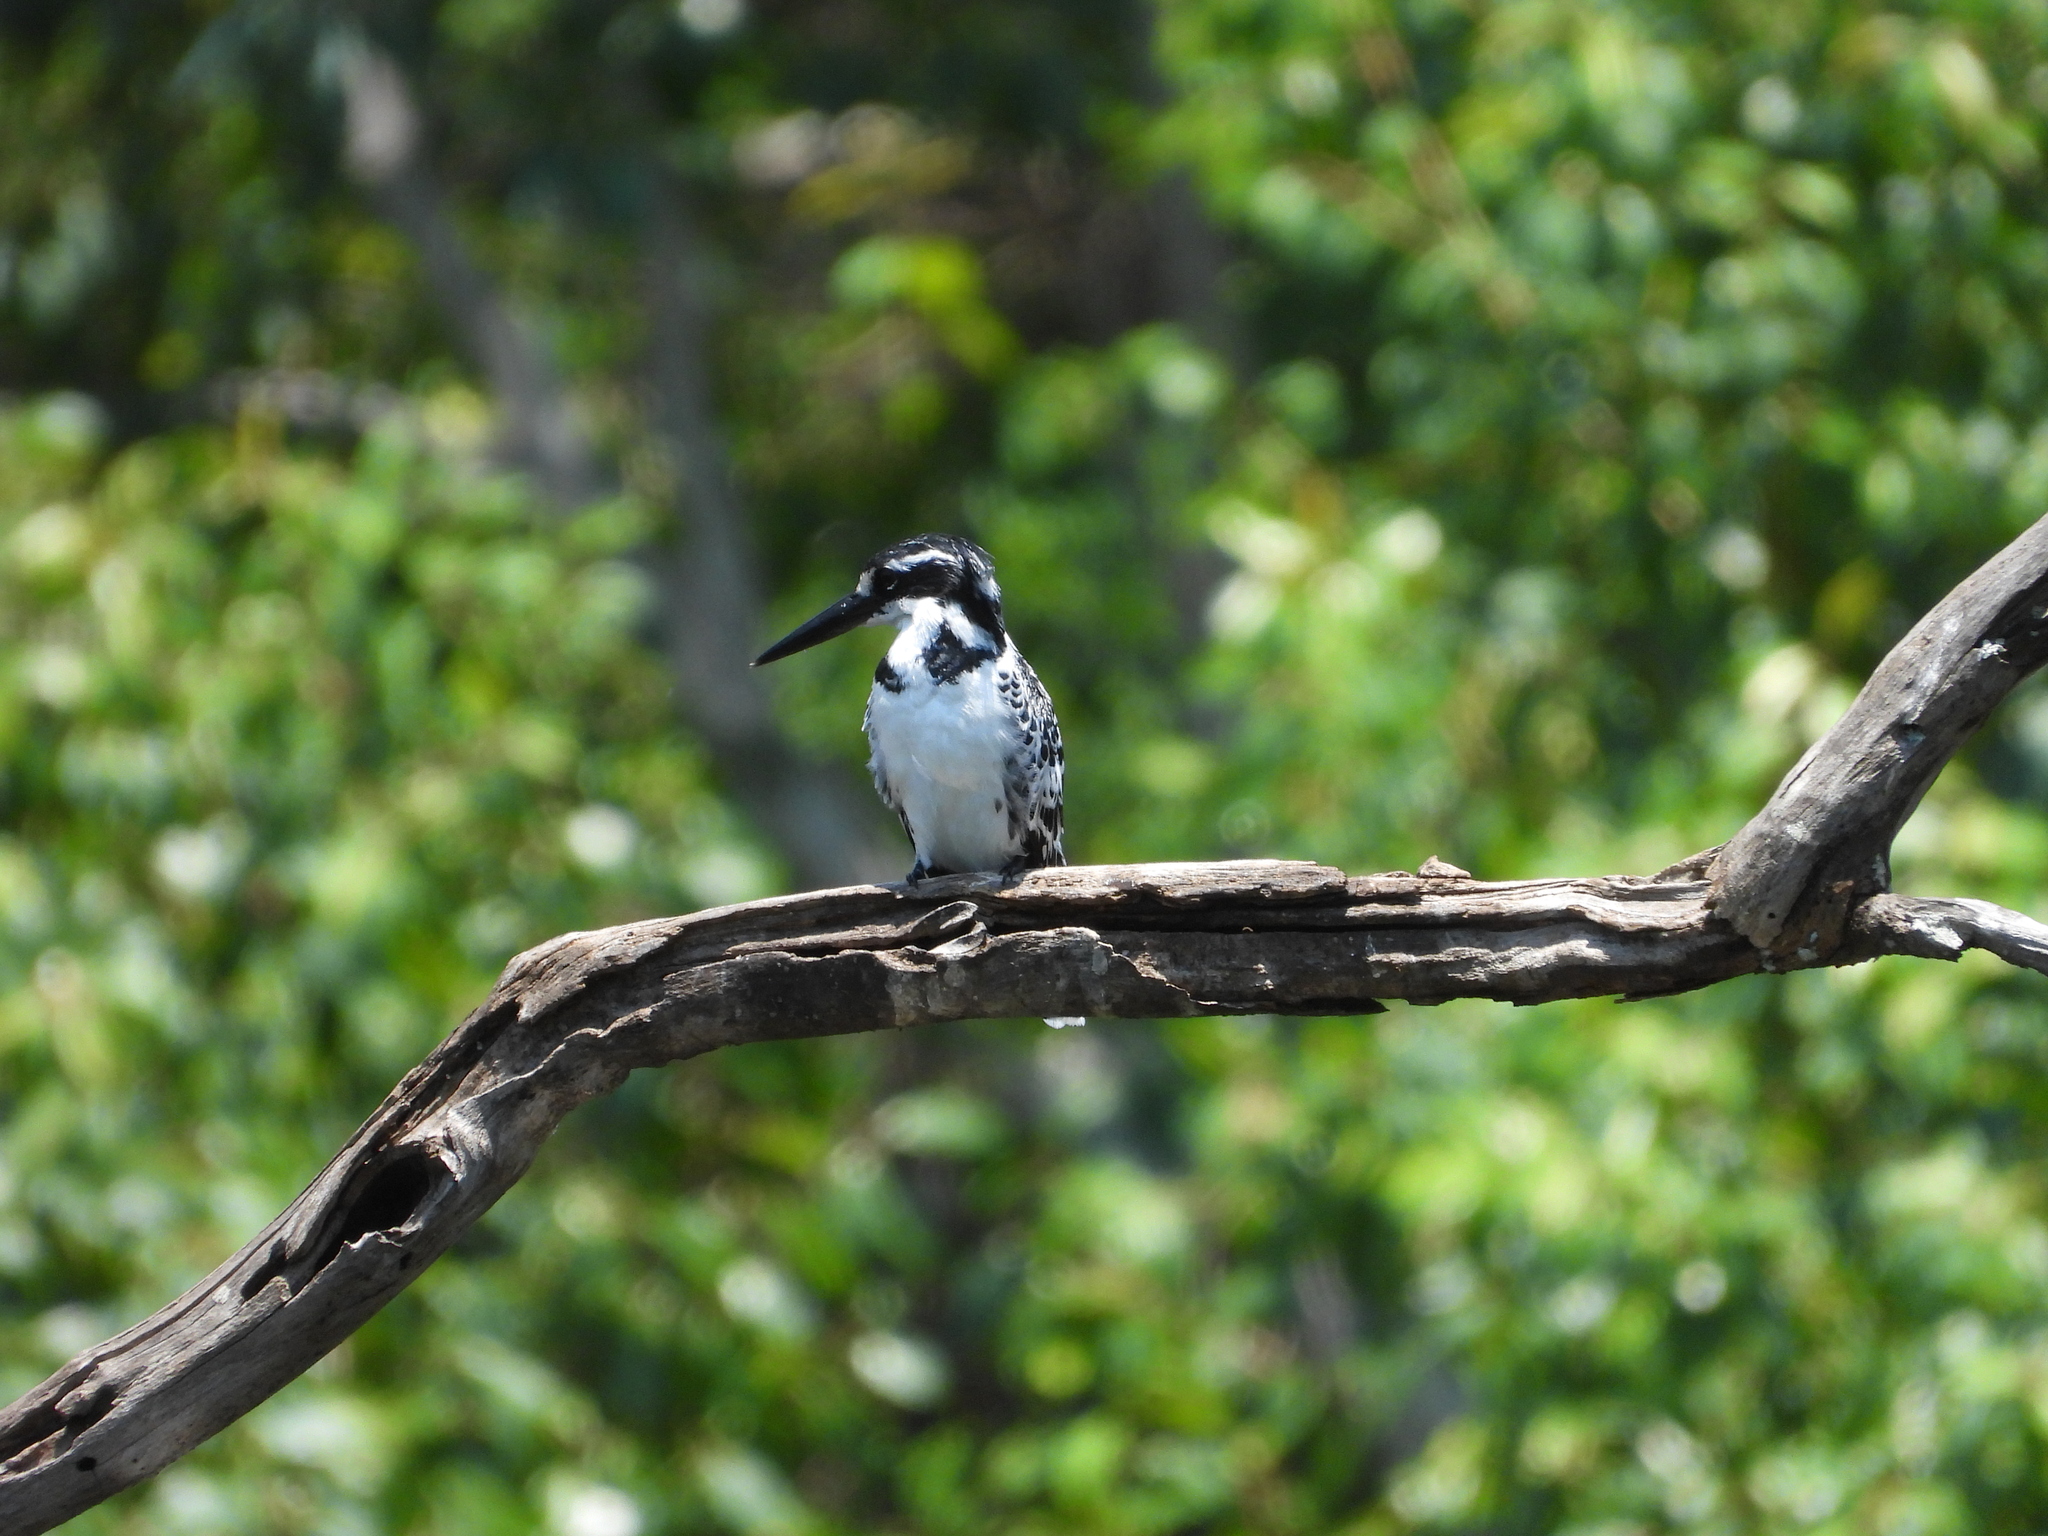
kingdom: Animalia
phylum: Chordata
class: Aves
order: Coraciiformes
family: Alcedinidae
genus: Ceryle
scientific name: Ceryle rudis
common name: Pied kingfisher
